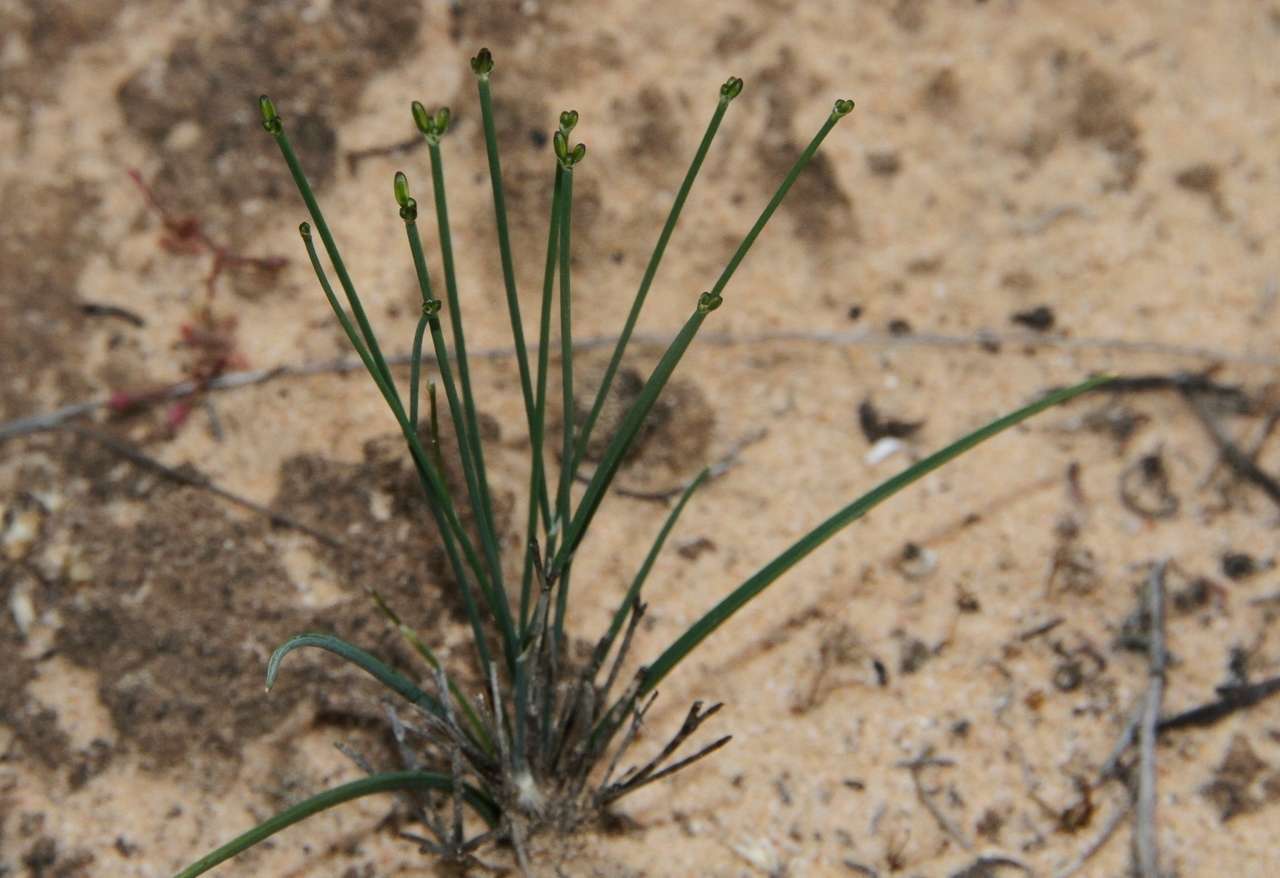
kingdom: Plantae
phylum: Tracheophyta
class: Liliopsida
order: Asparagales
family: Asphodelaceae
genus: Tricoryne
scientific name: Tricoryne tenella
